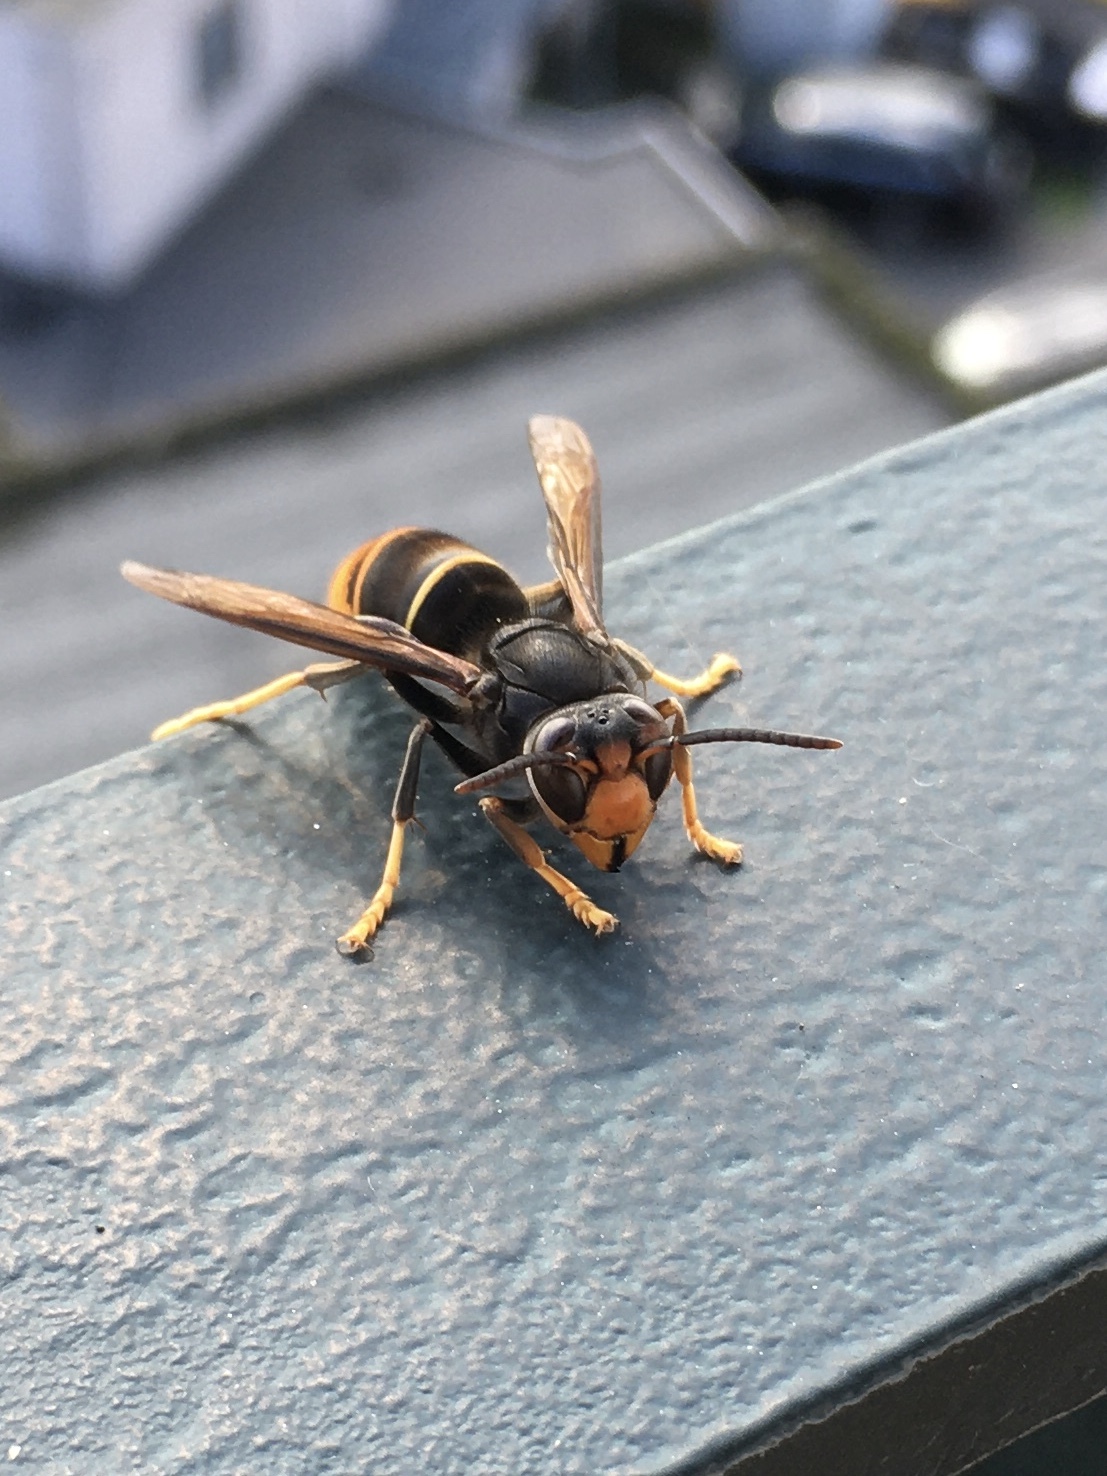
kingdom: Animalia
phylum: Arthropoda
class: Insecta
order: Hymenoptera
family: Vespidae
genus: Vespa
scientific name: Vespa velutina
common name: Asian hornet
